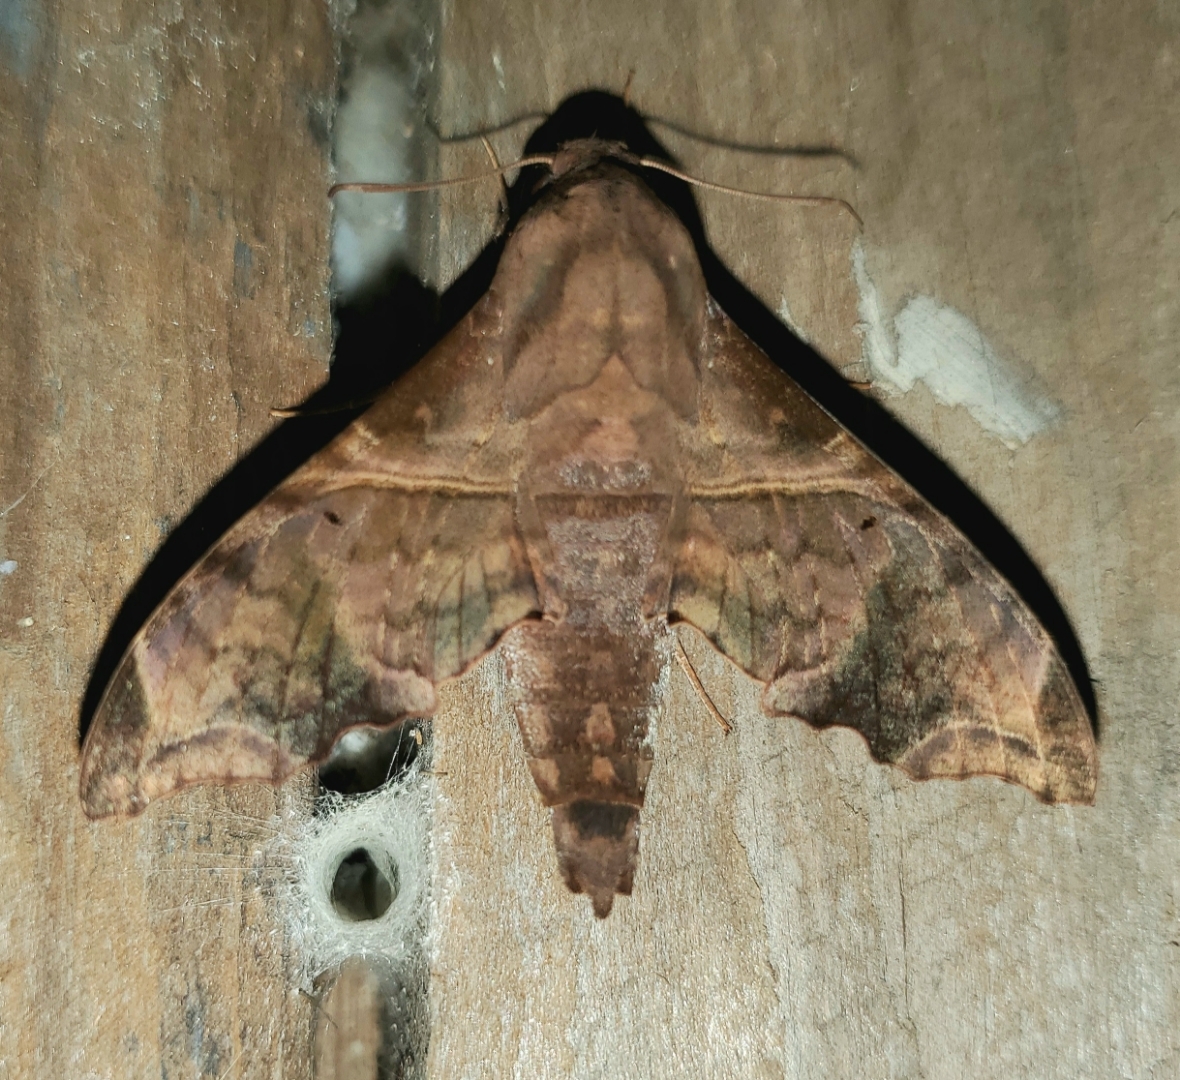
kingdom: Animalia
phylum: Arthropoda
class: Insecta
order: Lepidoptera
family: Sphingidae
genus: Enyo
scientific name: Enyo lugubris
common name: Mournful sphinx
